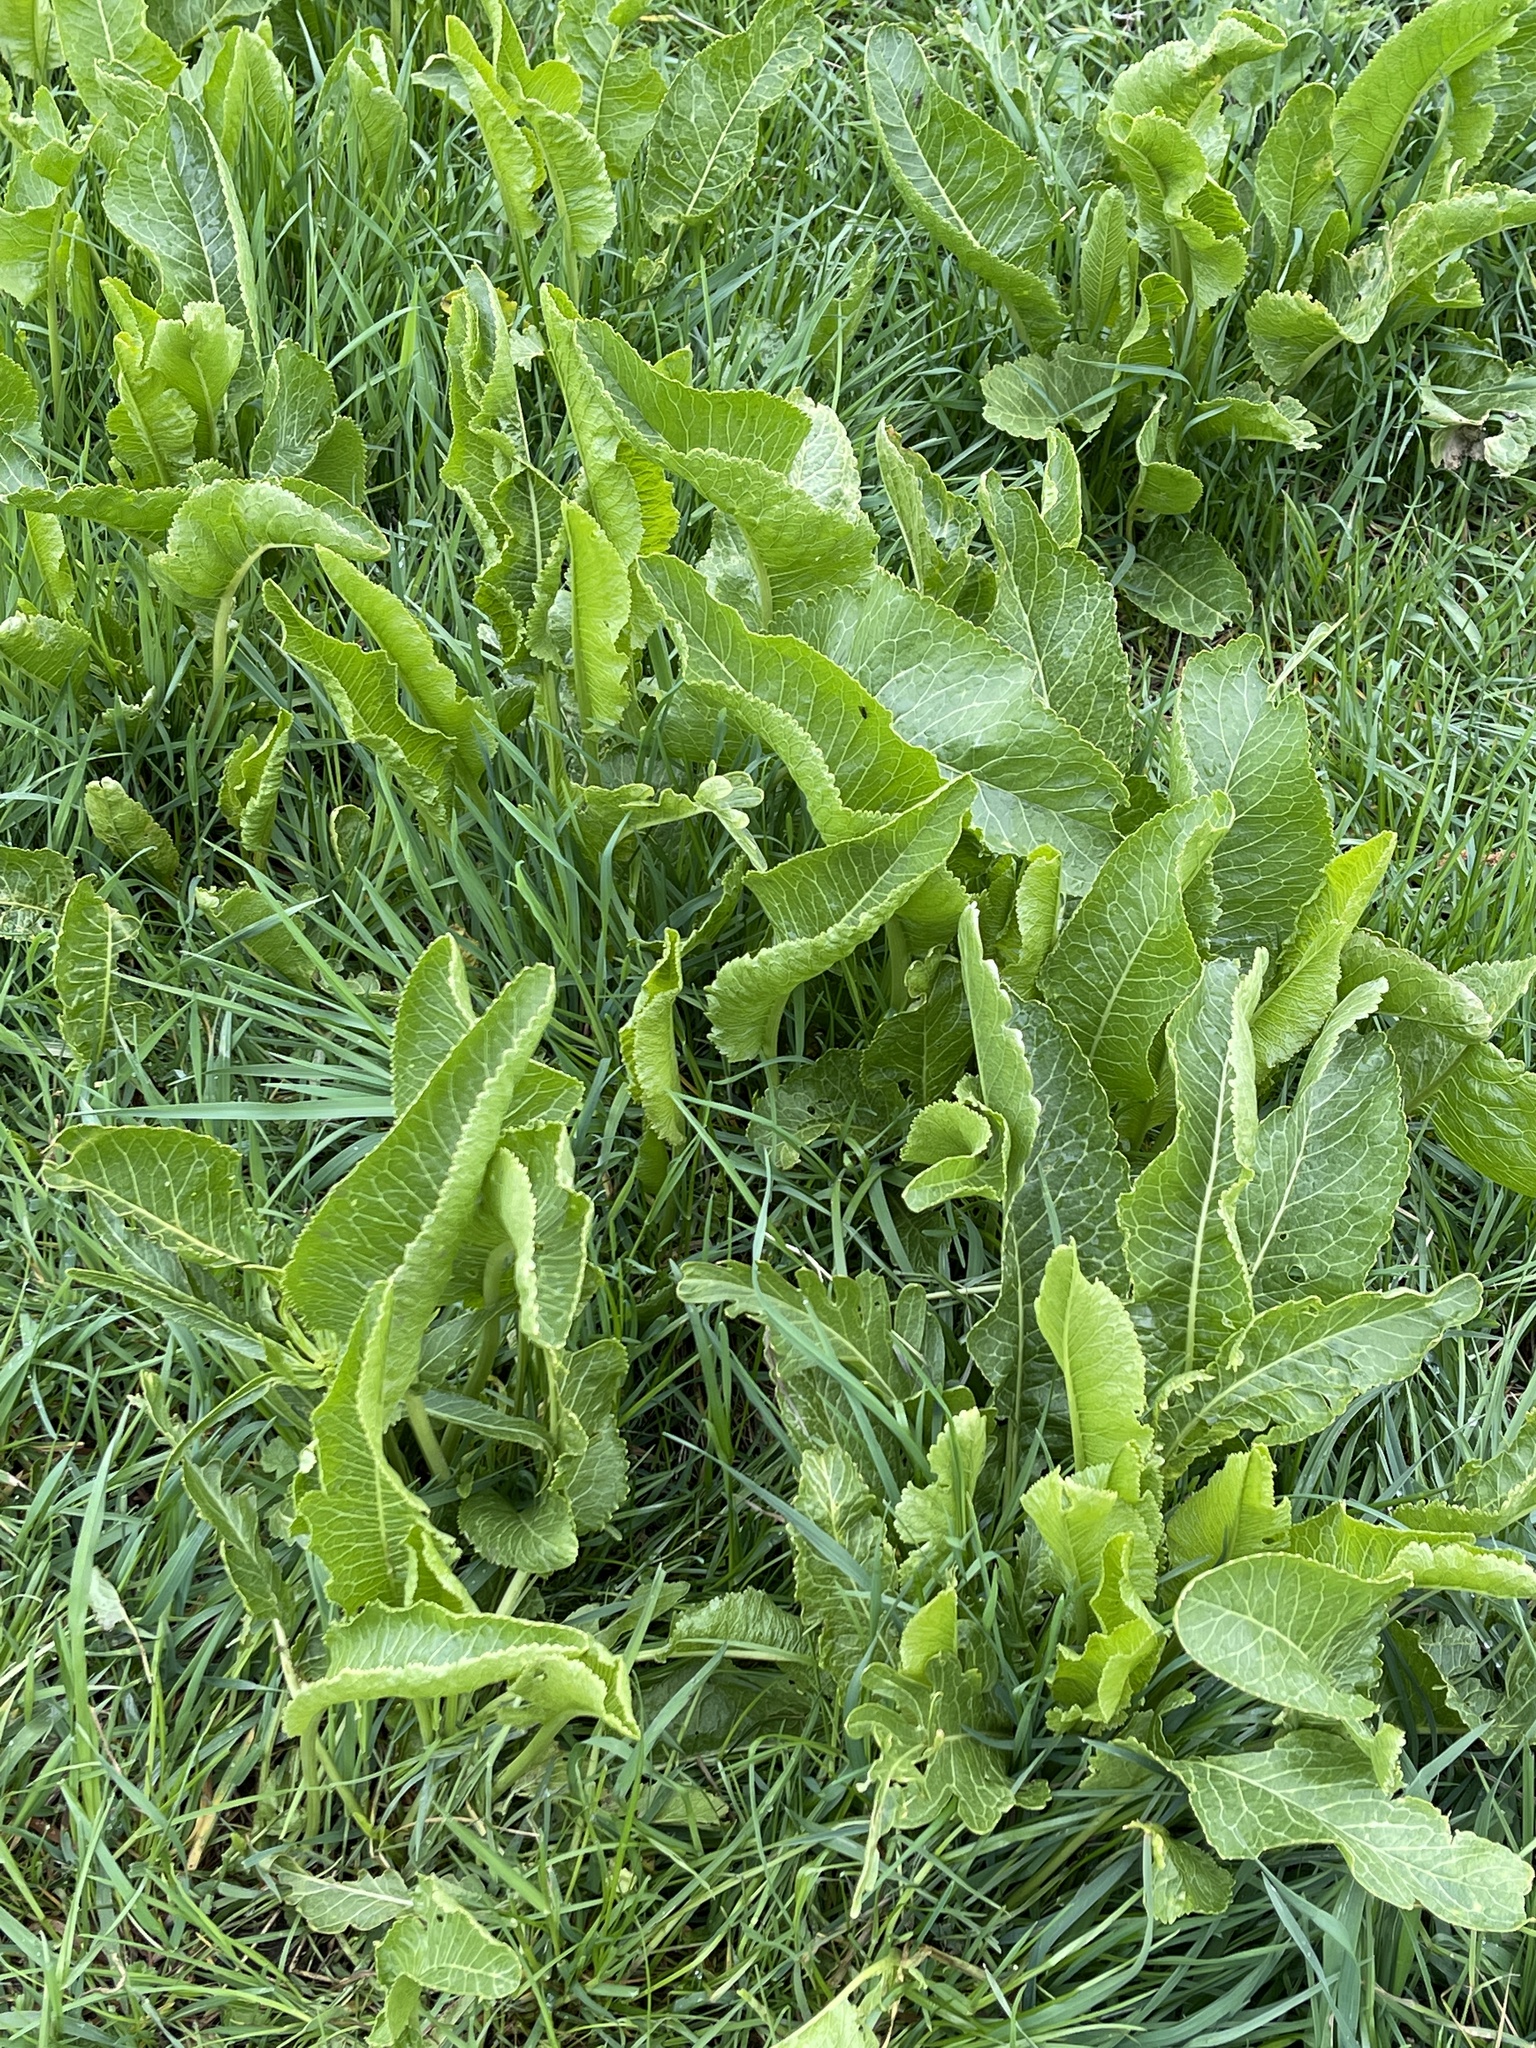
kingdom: Plantae
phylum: Tracheophyta
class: Magnoliopsida
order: Brassicales
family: Brassicaceae
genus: Armoracia
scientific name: Armoracia rusticana
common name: Horseradish
